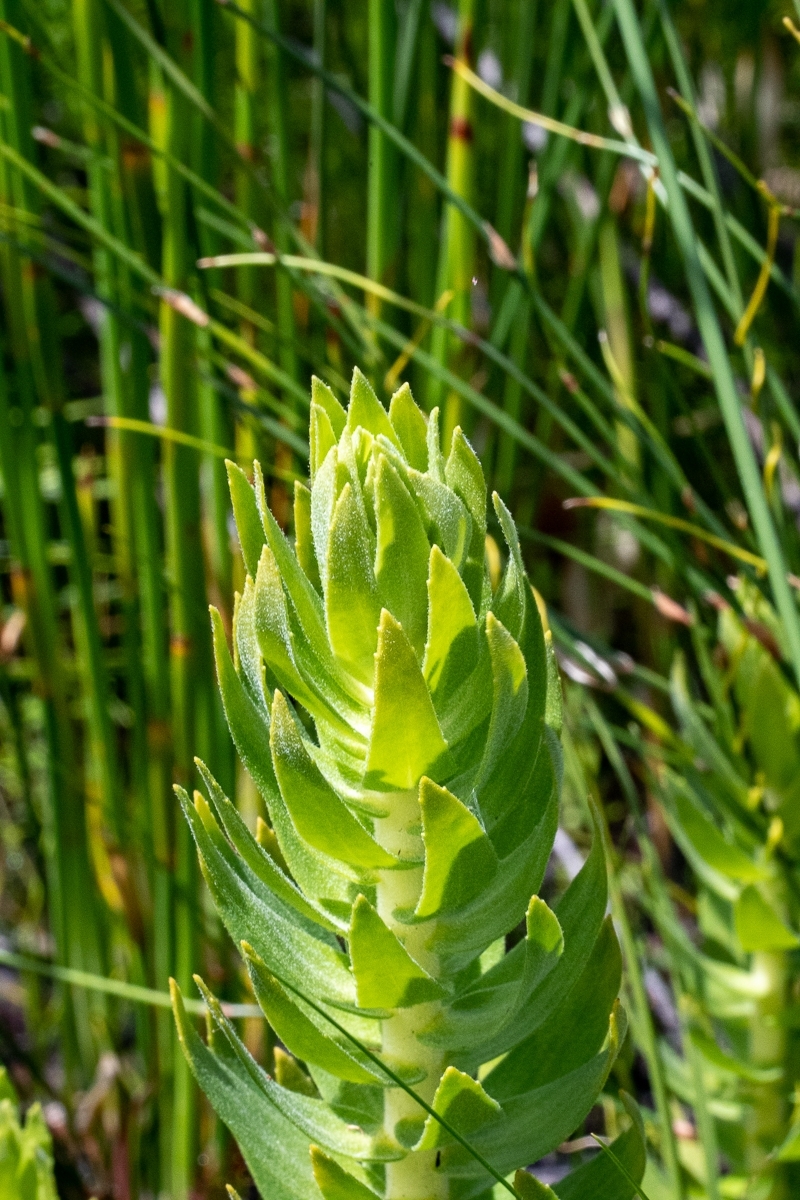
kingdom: Plantae
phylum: Tracheophyta
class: Magnoliopsida
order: Asterales
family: Asteraceae
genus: Osmitopsis
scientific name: Osmitopsis asteriscoides
